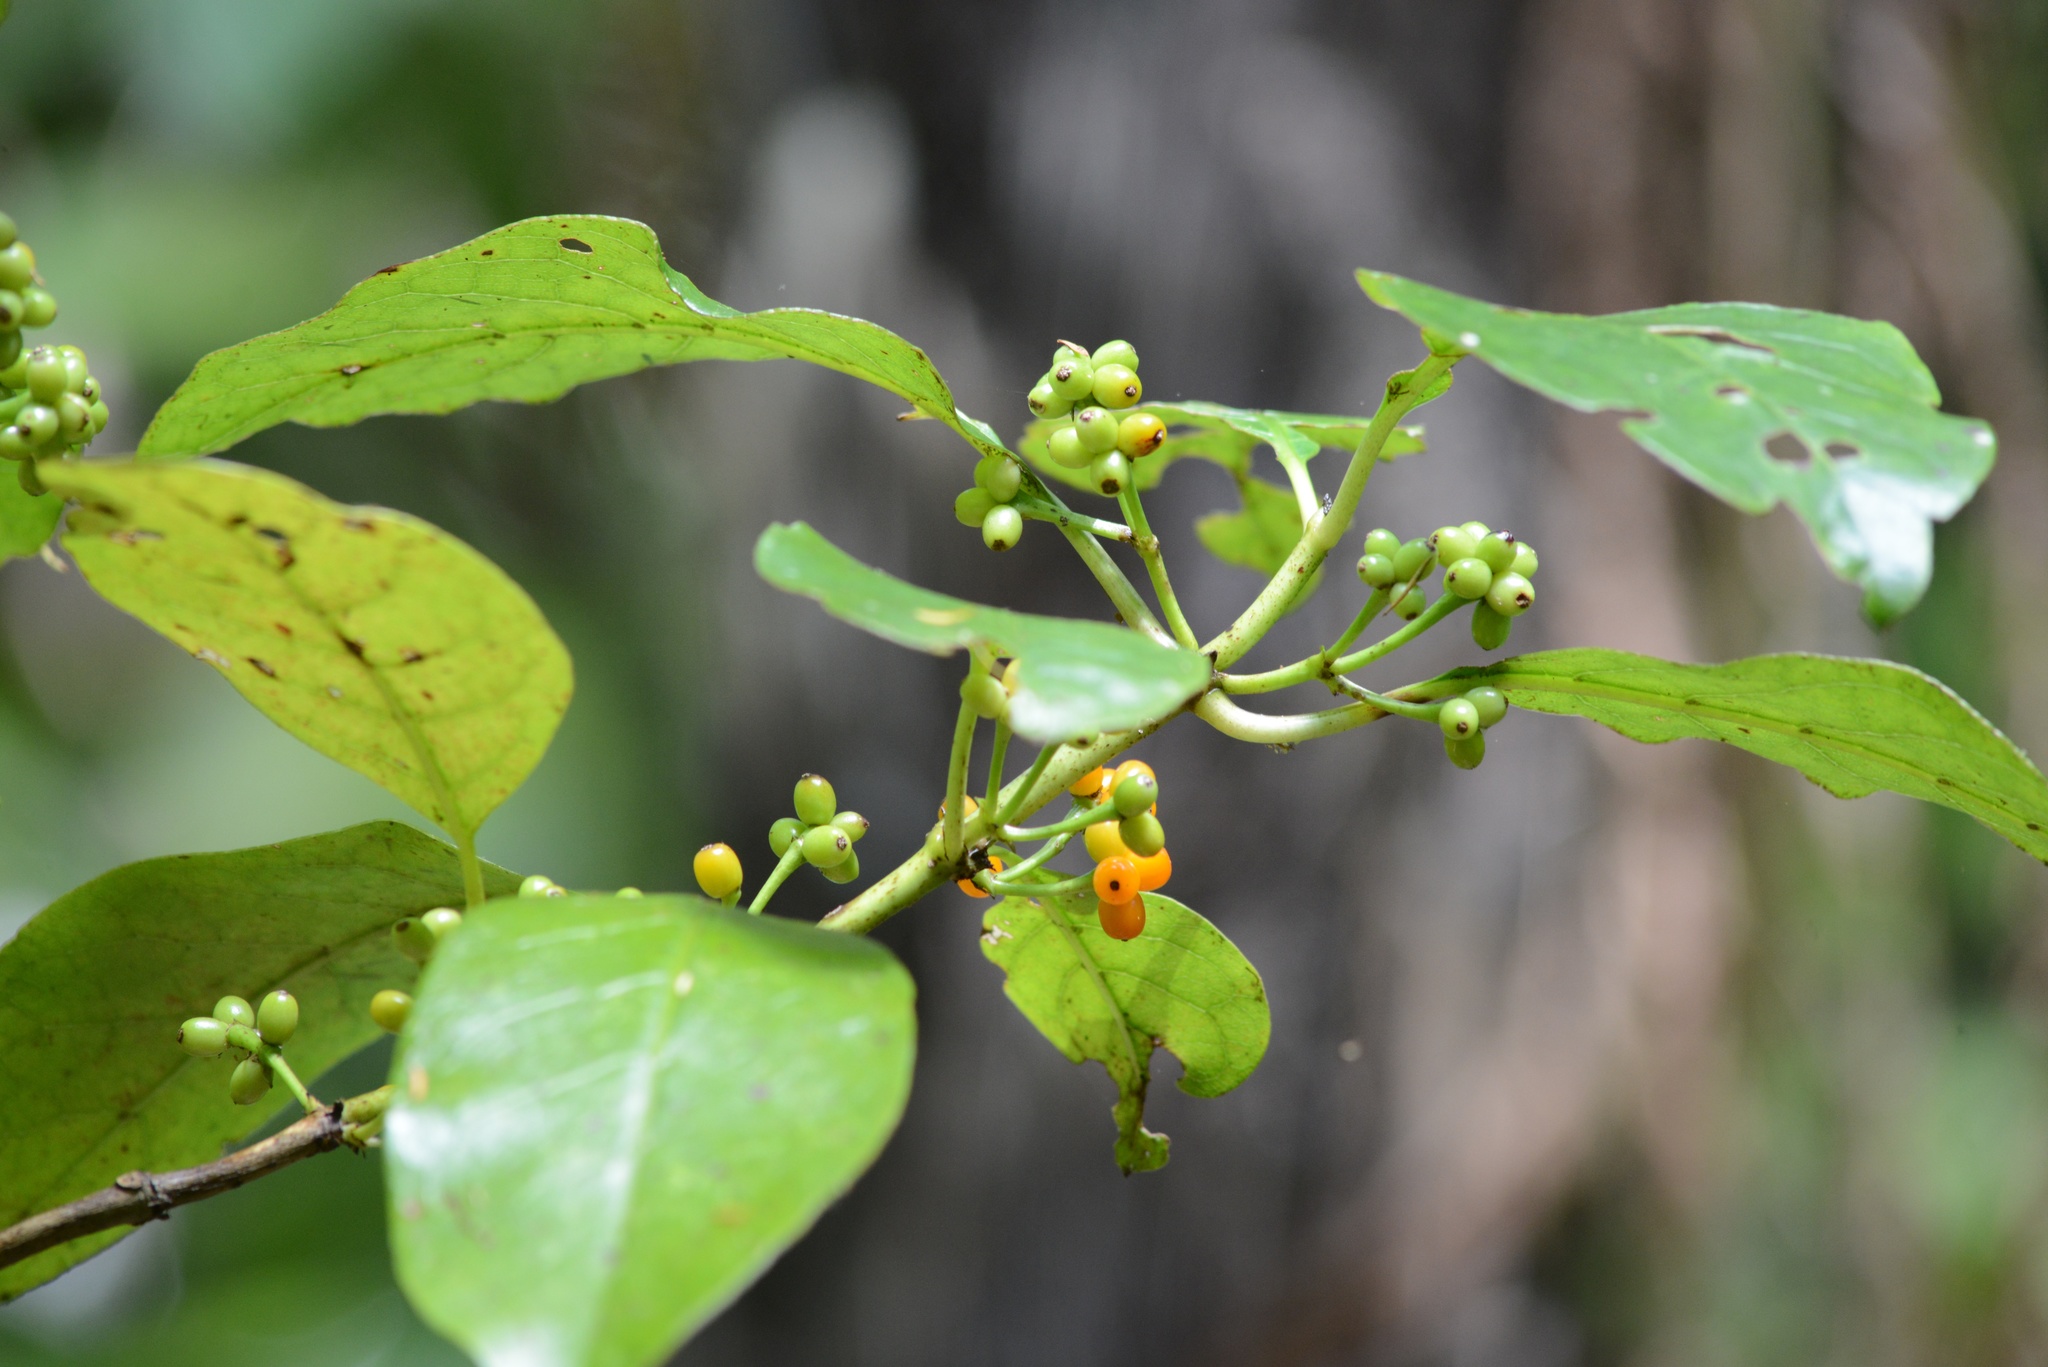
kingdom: Plantae
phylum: Tracheophyta
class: Magnoliopsida
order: Gentianales
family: Rubiaceae
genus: Coprosma
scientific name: Coprosma autumnalis
